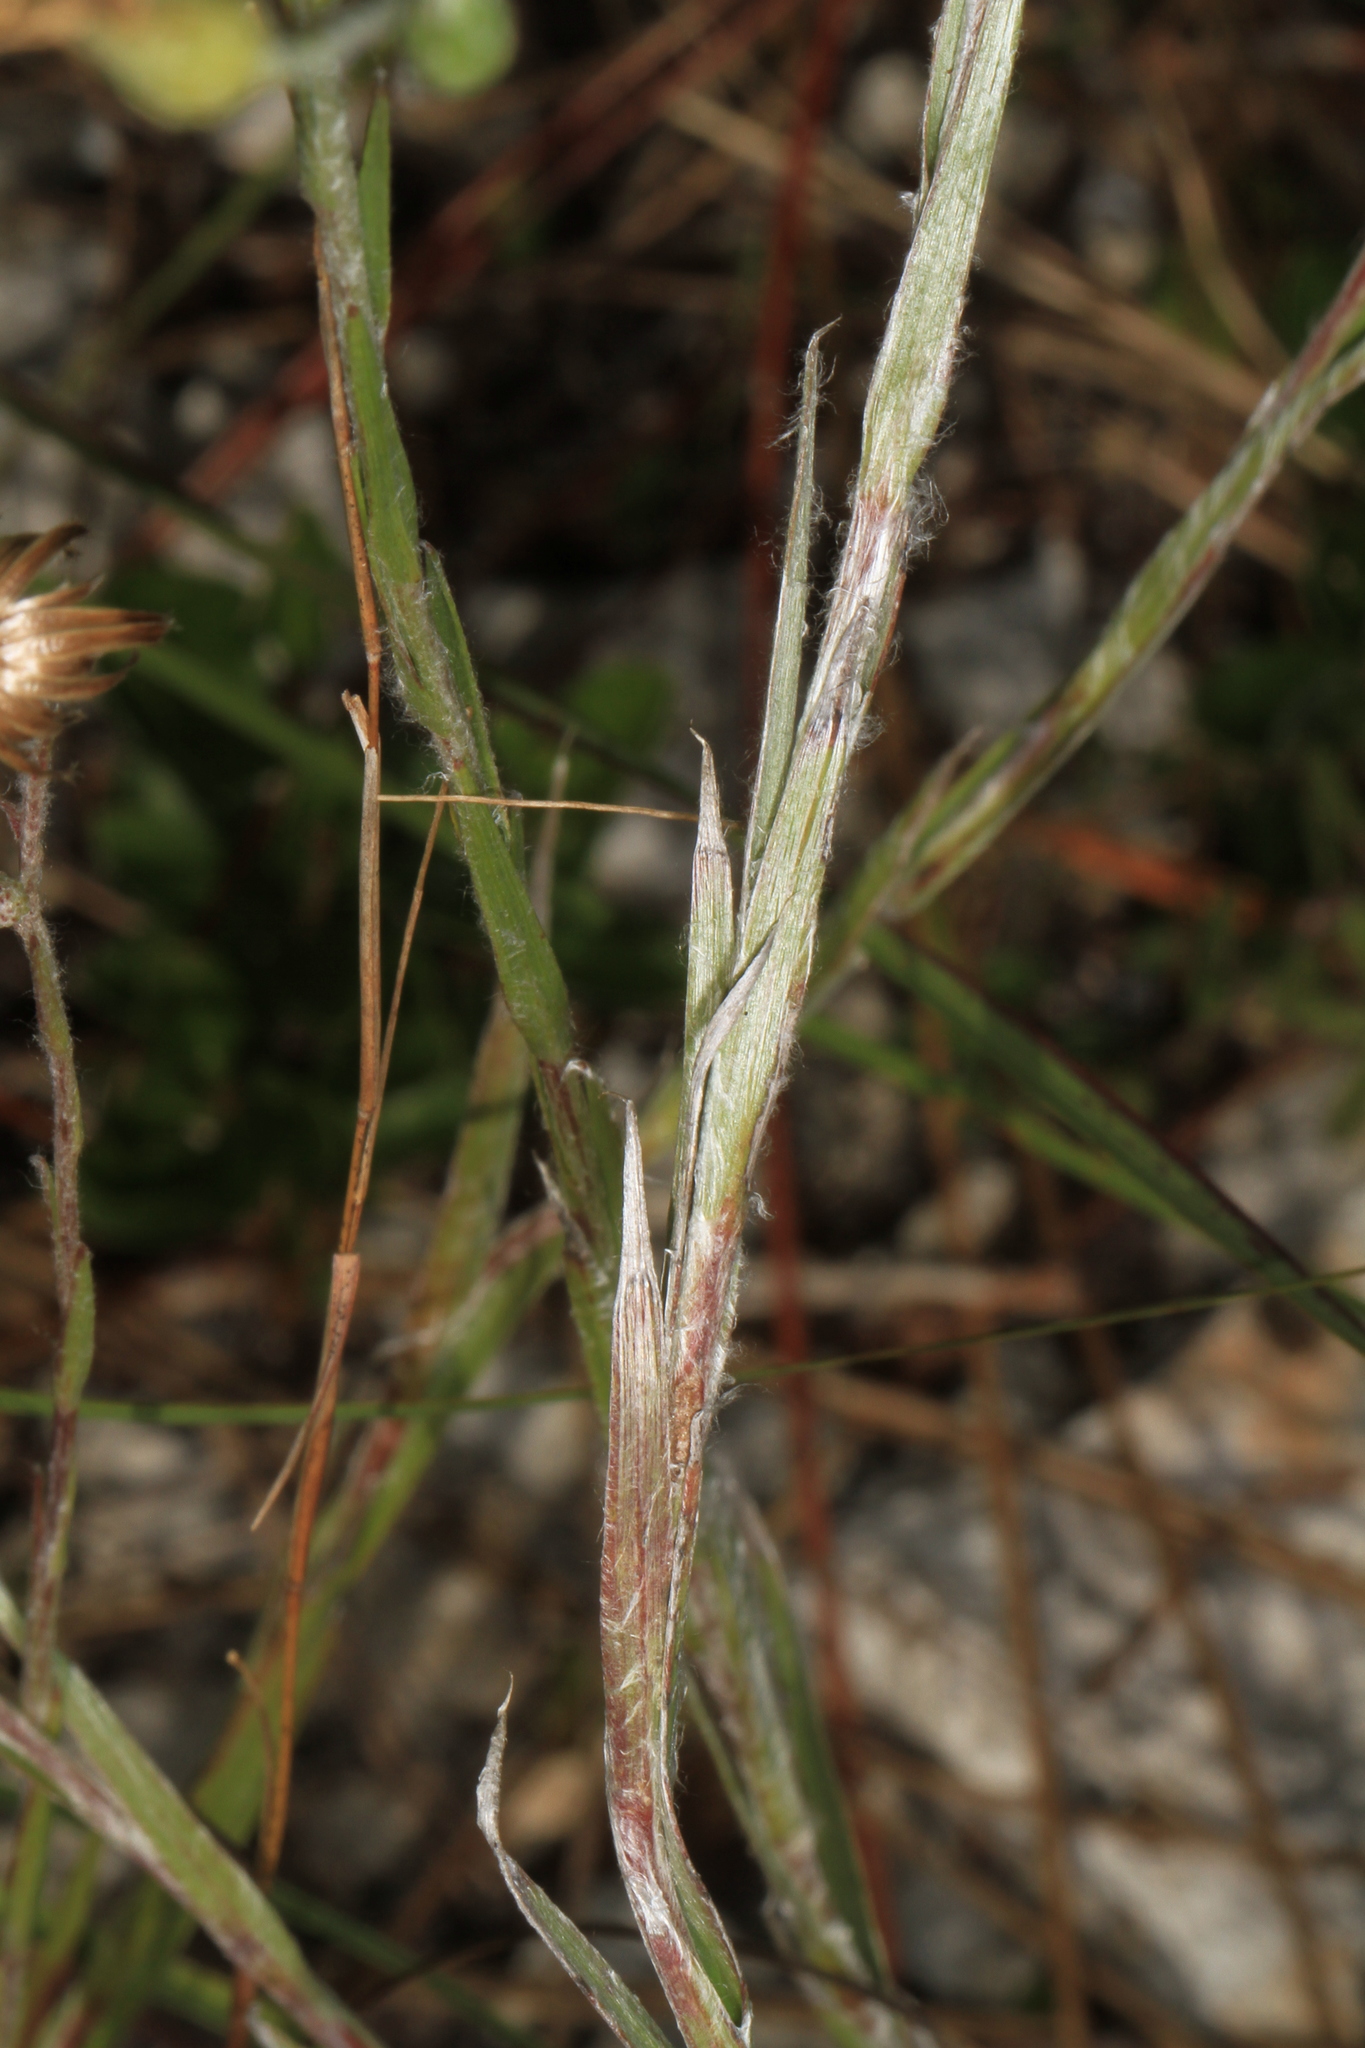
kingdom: Plantae
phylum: Tracheophyta
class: Magnoliopsida
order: Asterales
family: Asteraceae
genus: Pityopsis
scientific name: Pityopsis graminifolia
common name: Grass-leaf golden-aster
